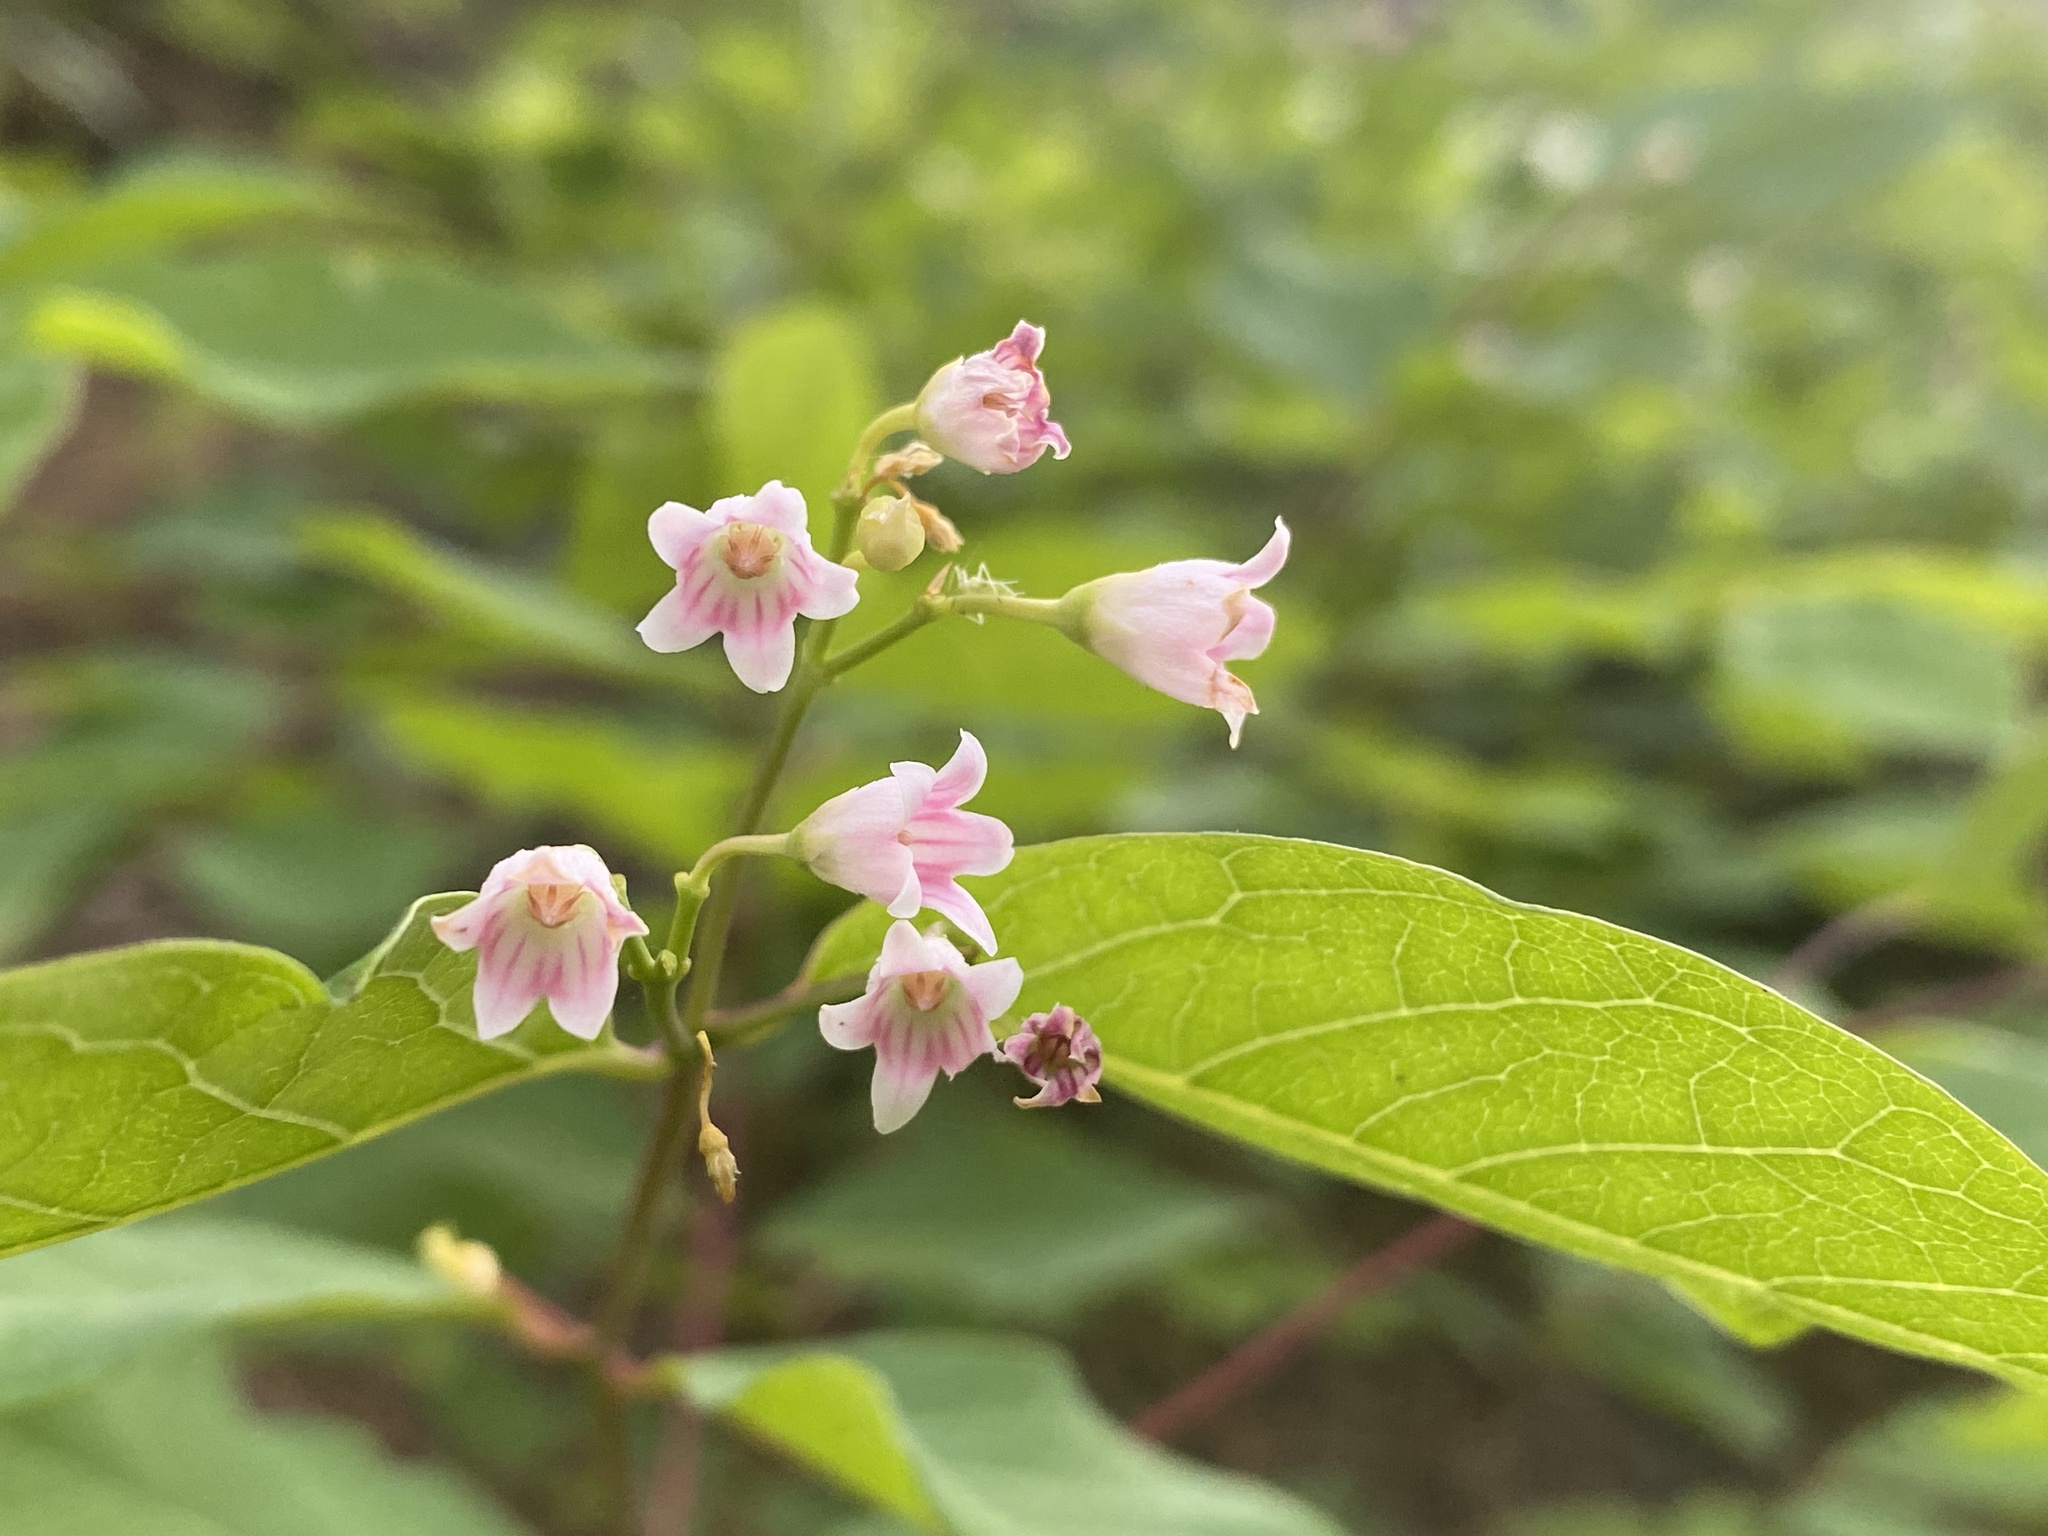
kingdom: Plantae
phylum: Tracheophyta
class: Magnoliopsida
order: Gentianales
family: Apocynaceae
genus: Apocynum
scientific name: Apocynum androsaemifolium
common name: Spreading dogbane
